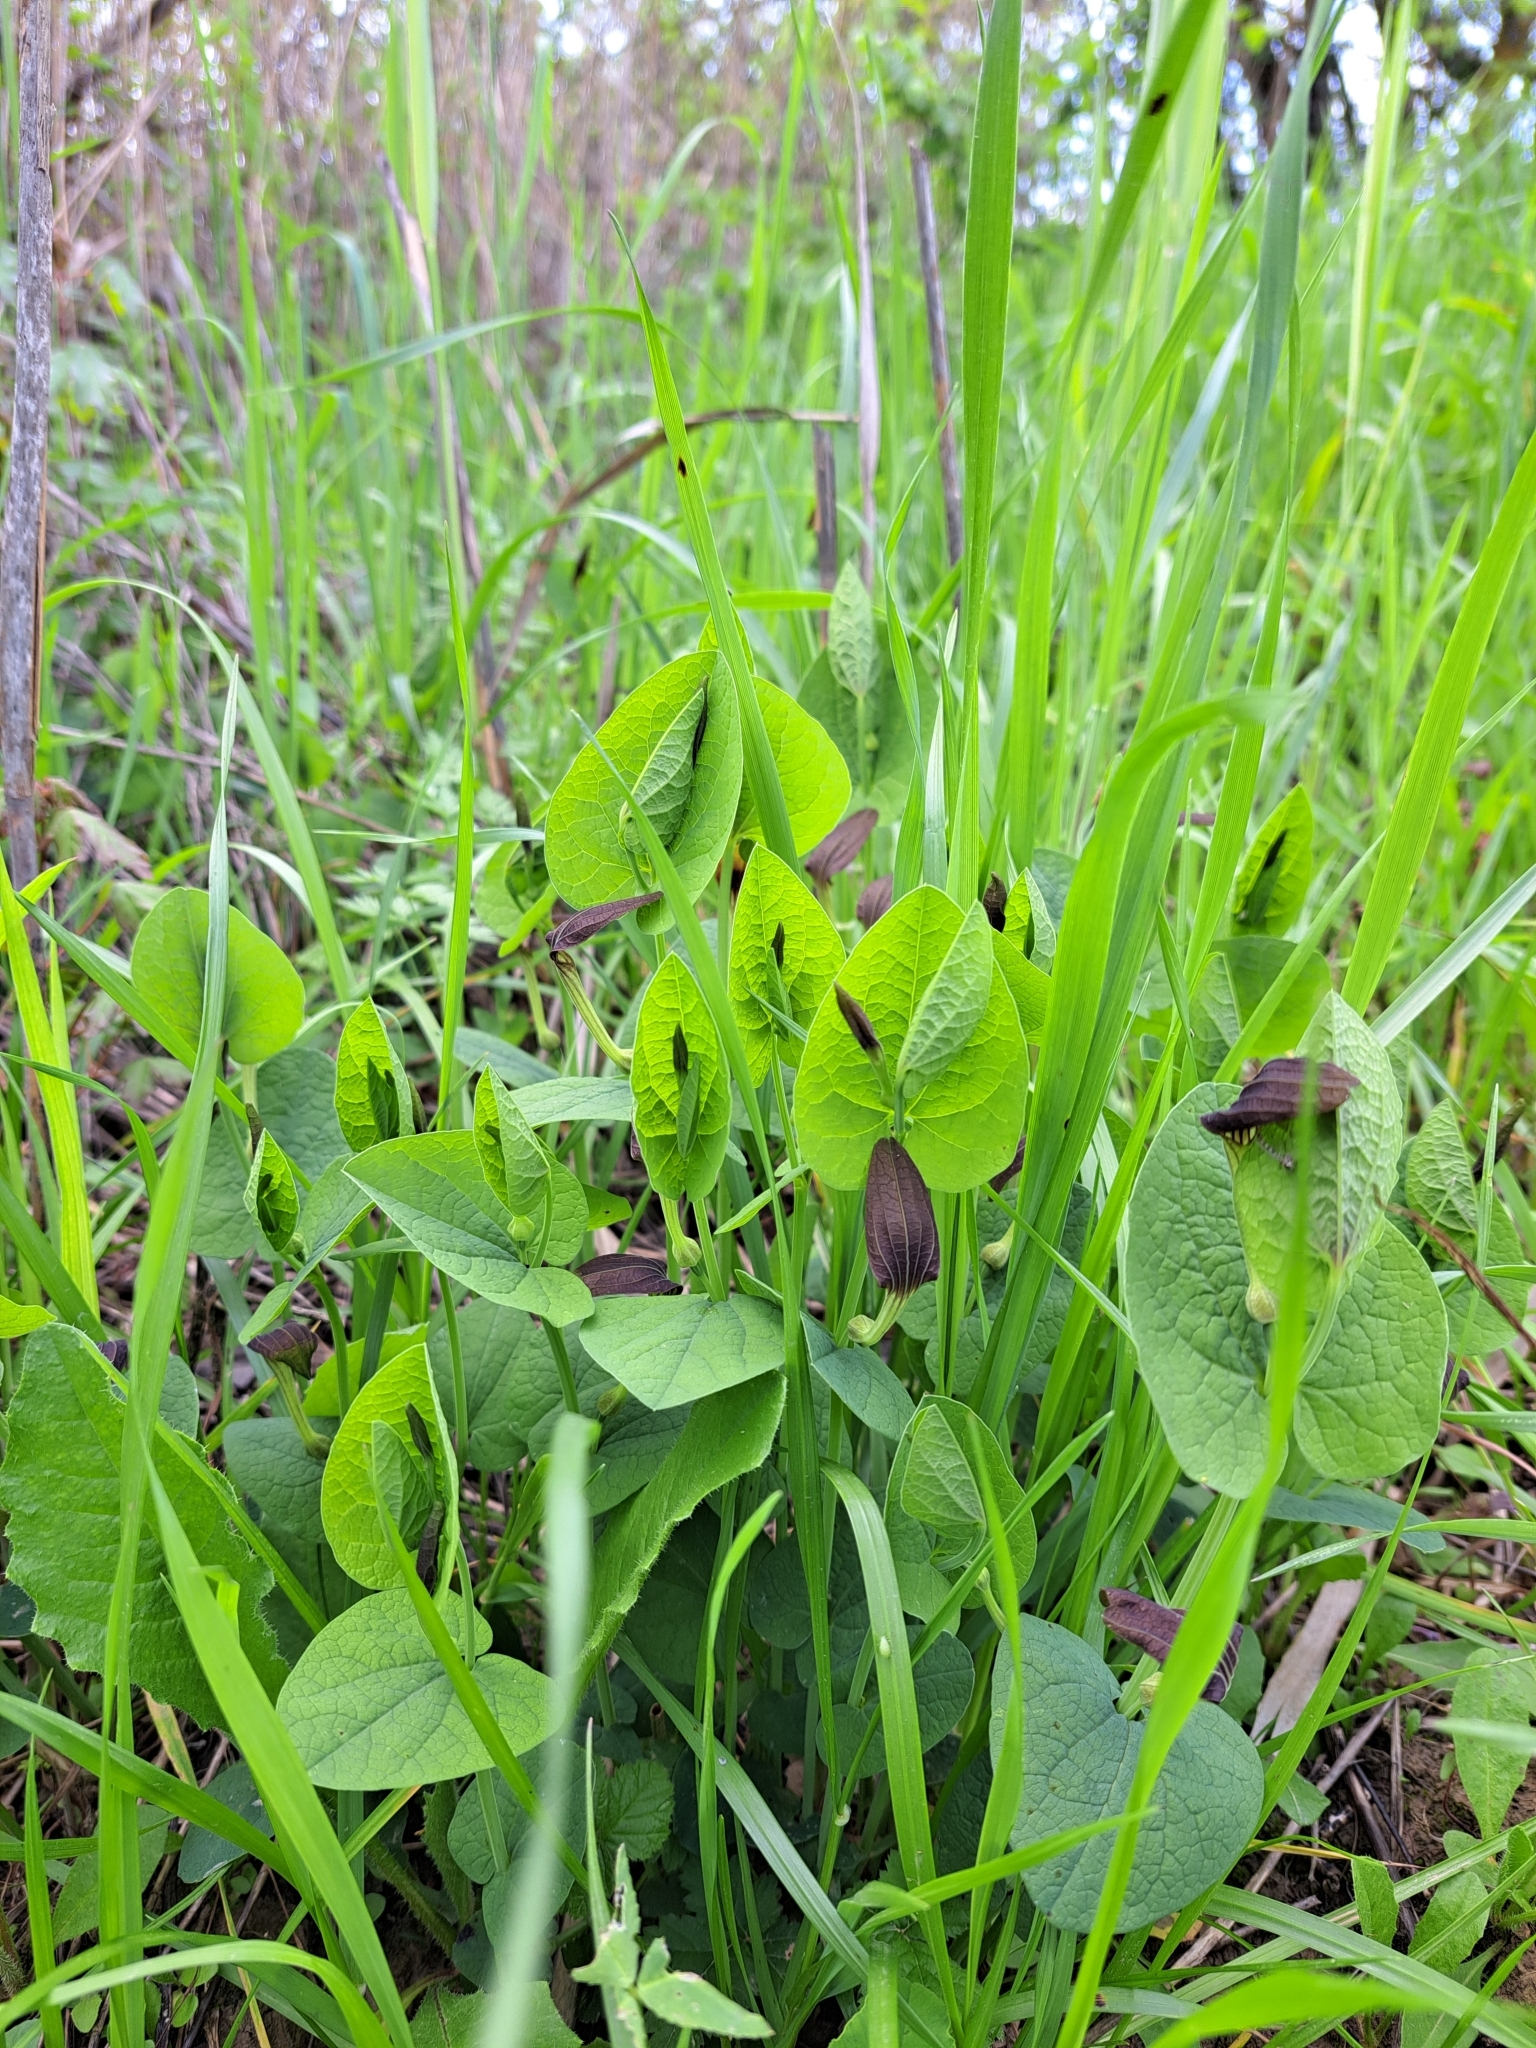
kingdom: Plantae
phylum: Tracheophyta
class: Magnoliopsida
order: Piperales
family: Aristolochiaceae
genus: Aristolochia
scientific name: Aristolochia rotunda
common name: Smearwort
